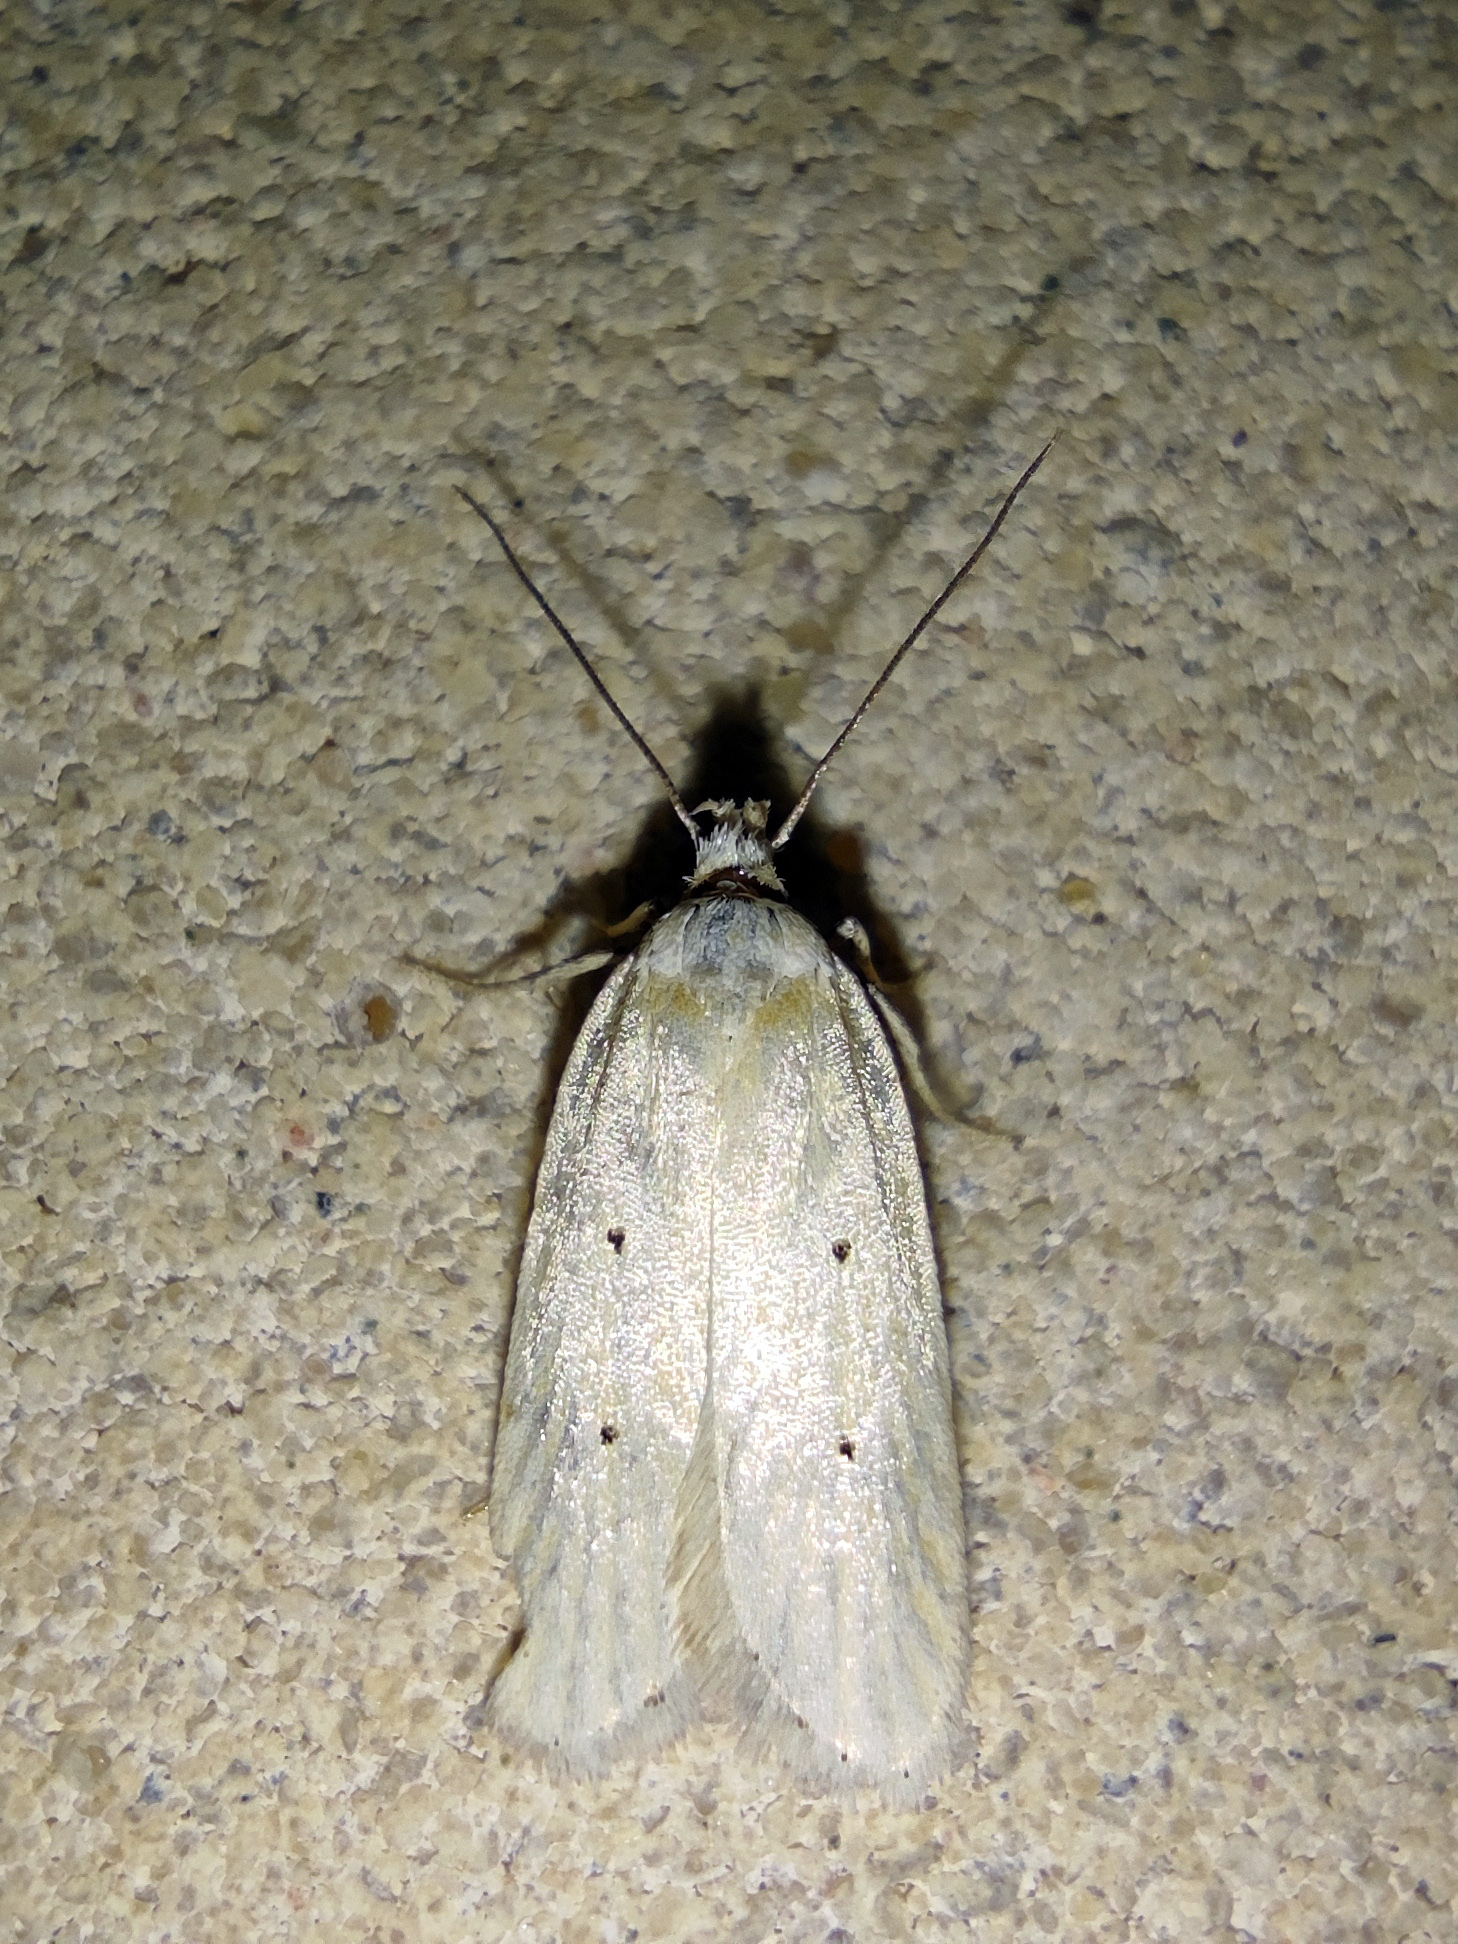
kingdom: Animalia
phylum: Arthropoda
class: Insecta
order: Lepidoptera
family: Depressariidae
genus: Exaeretia
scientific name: Exaeretia lepidella
